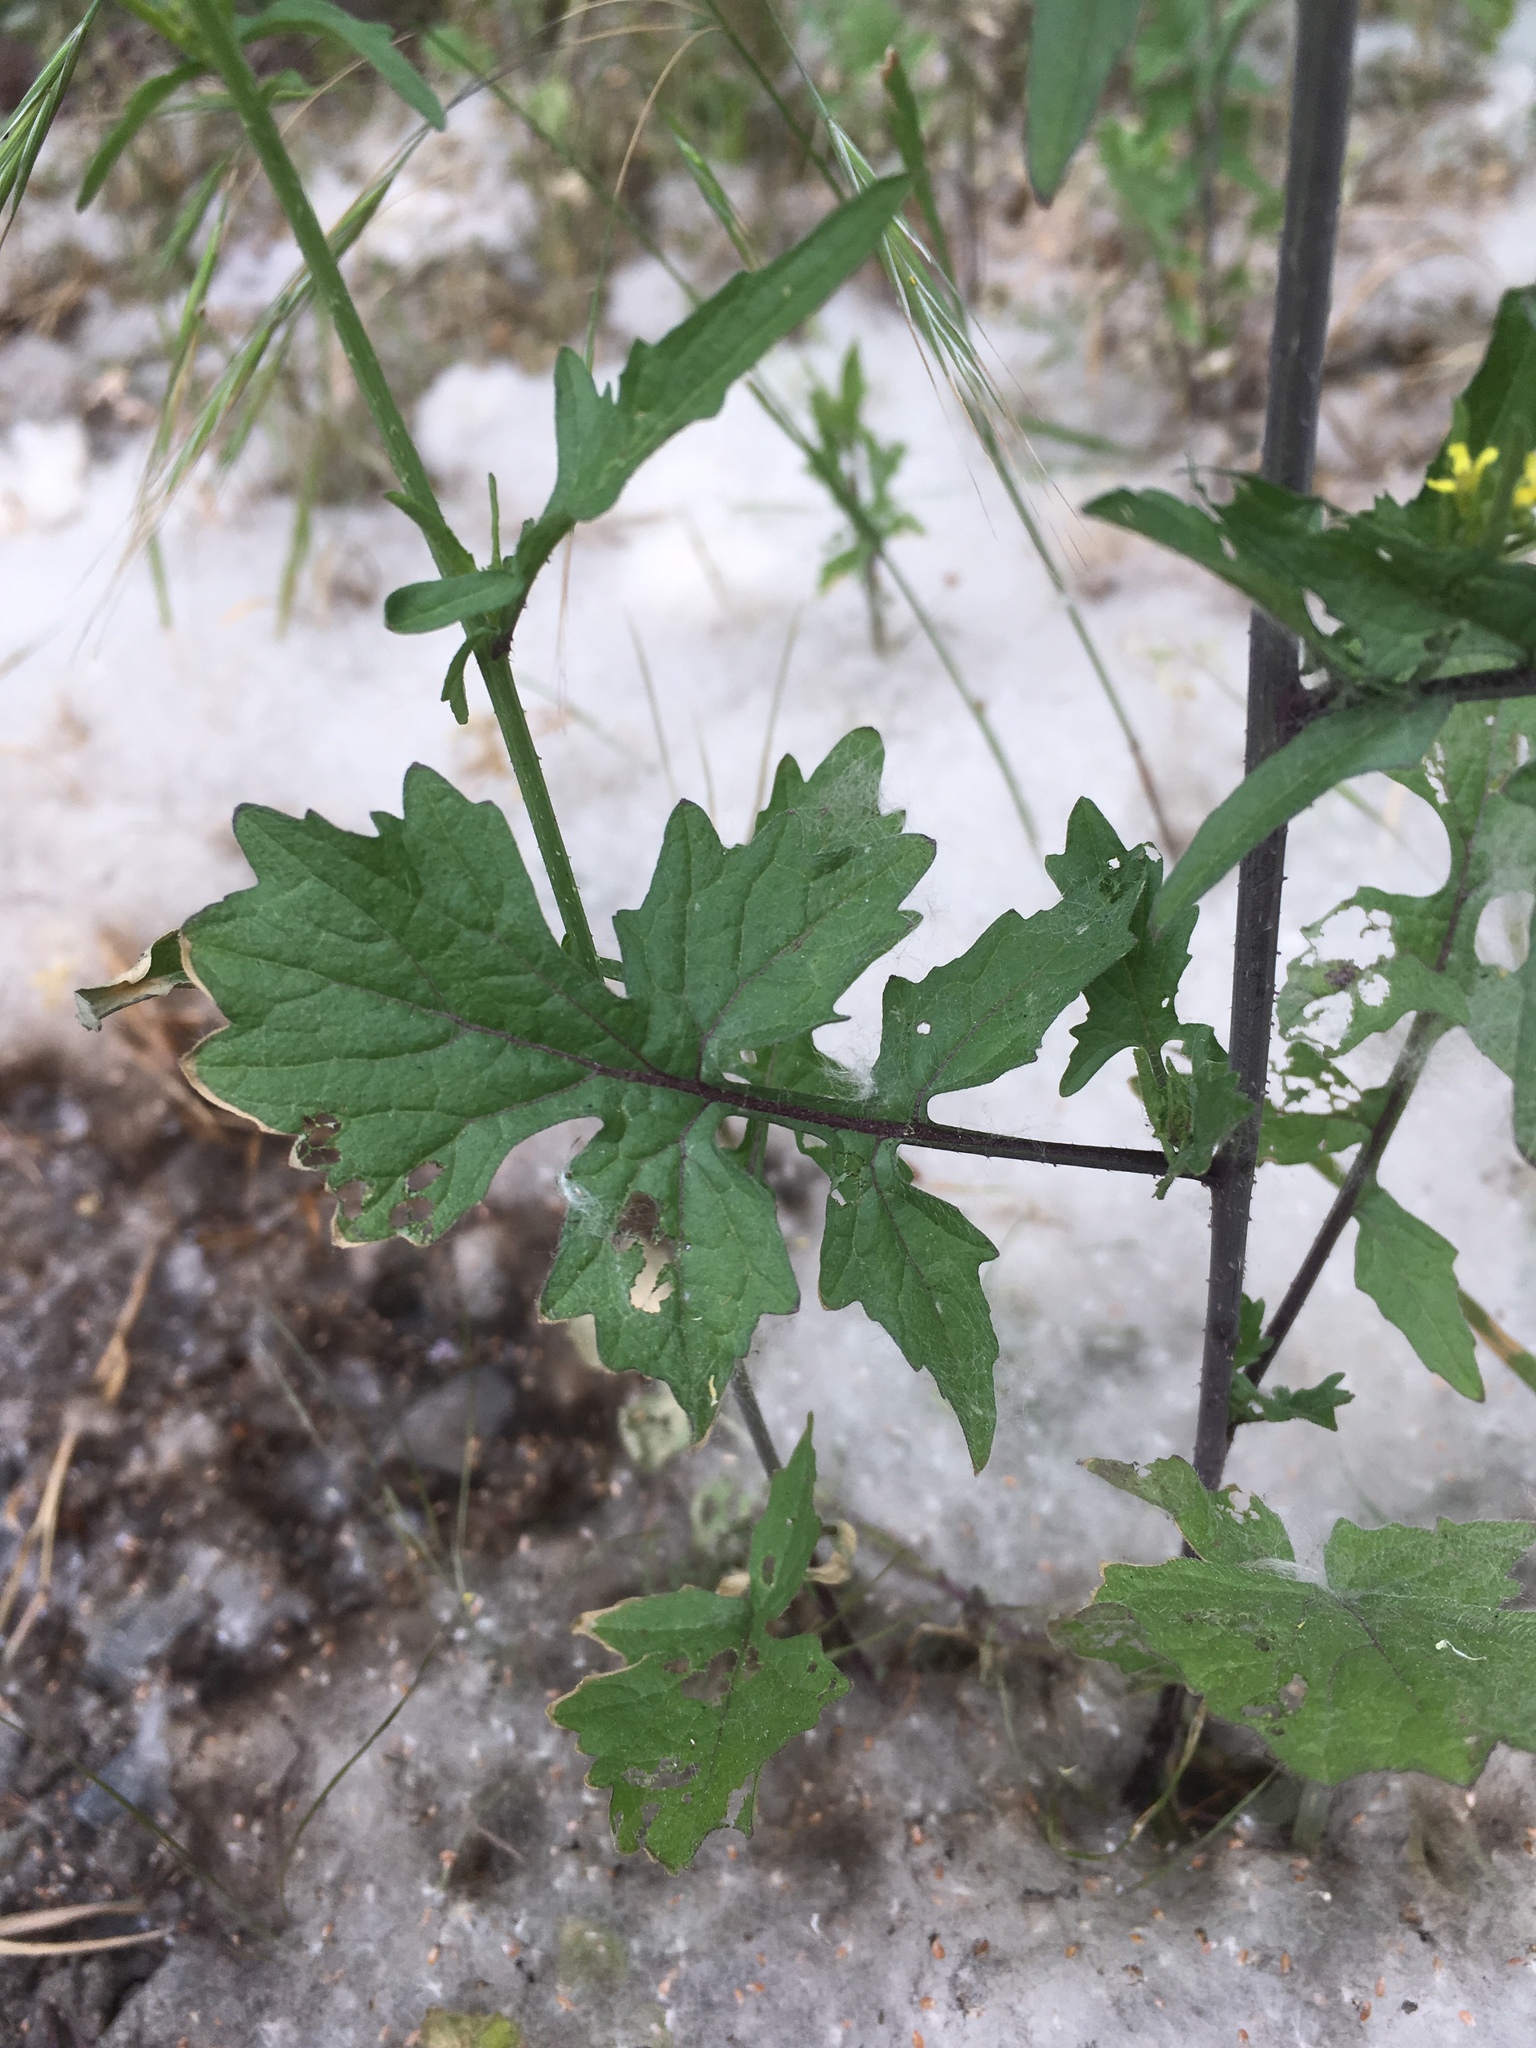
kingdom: Plantae
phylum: Tracheophyta
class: Magnoliopsida
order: Brassicales
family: Brassicaceae
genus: Sisymbrium
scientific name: Sisymbrium officinale
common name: Hedge mustard
